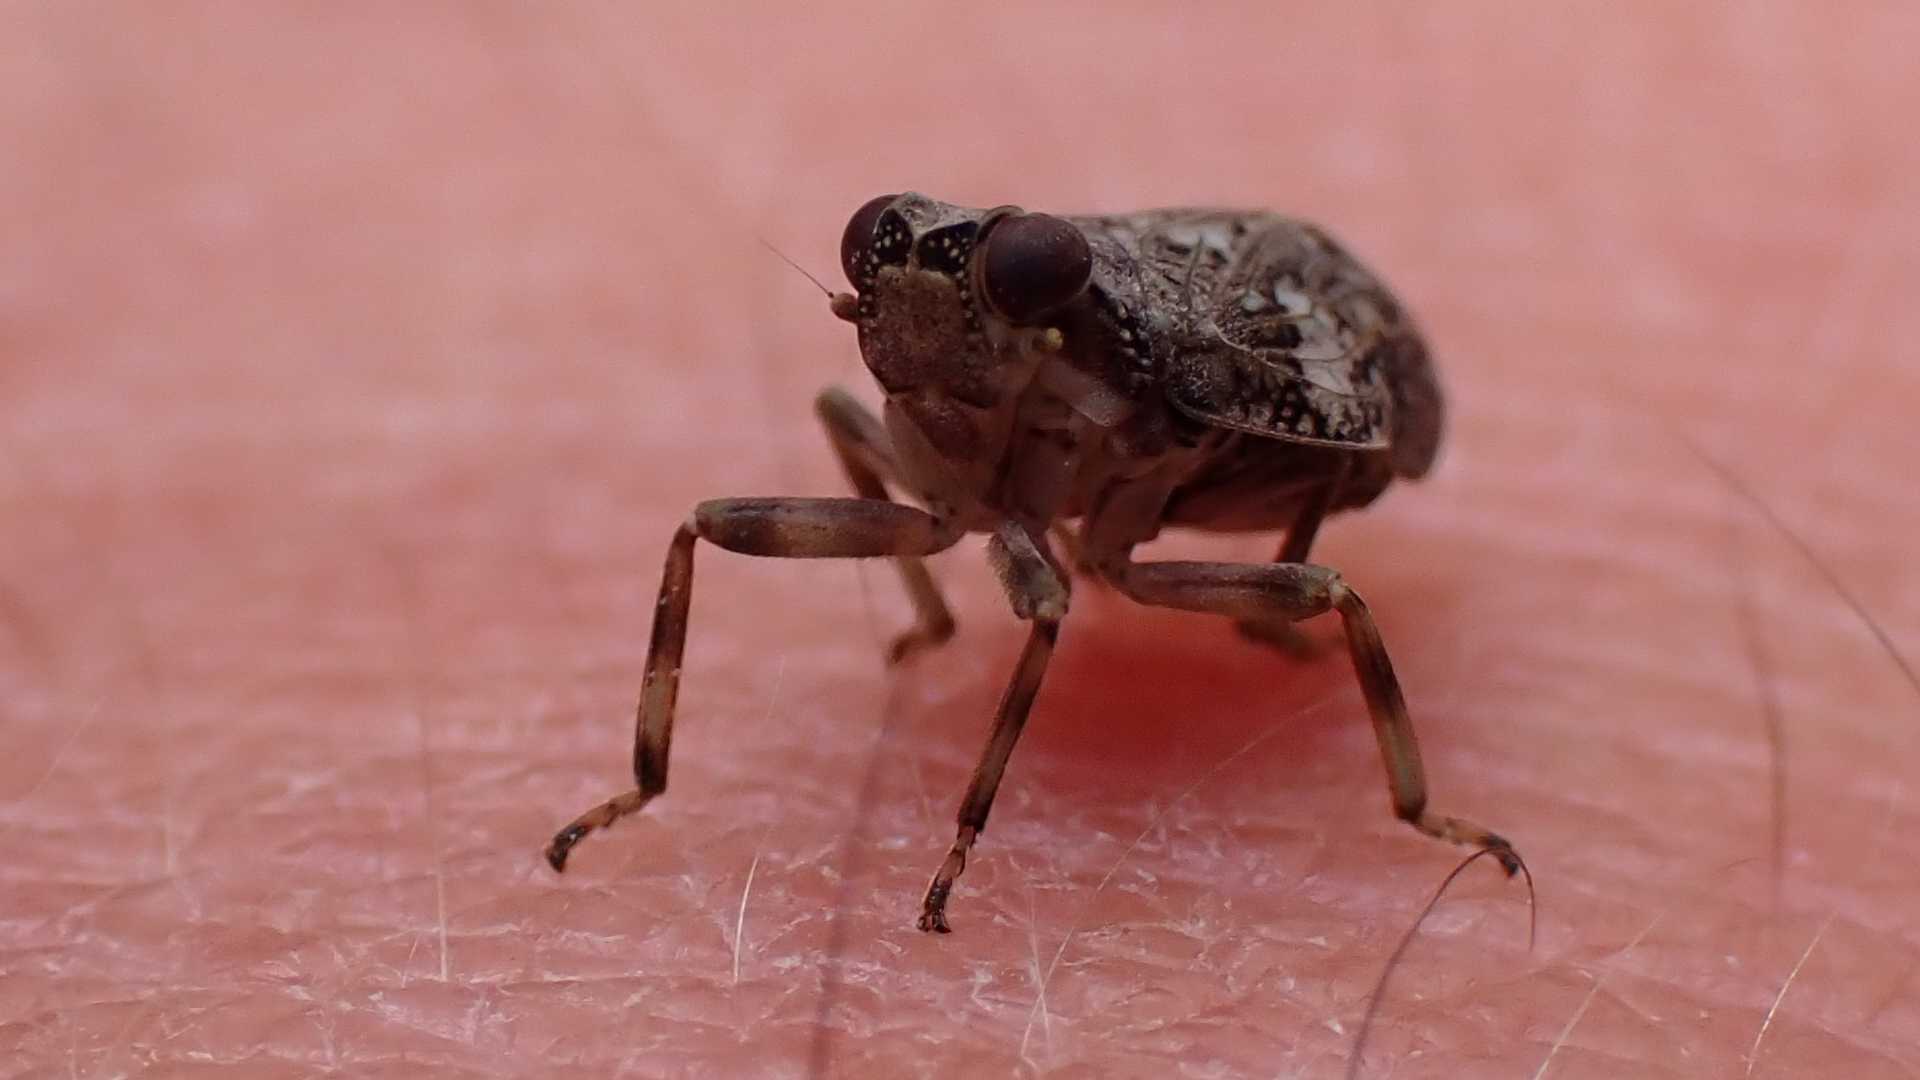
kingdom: Animalia
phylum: Arthropoda
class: Insecta
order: Hemiptera
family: Issidae
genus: Issus
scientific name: Issus coleoptratus
